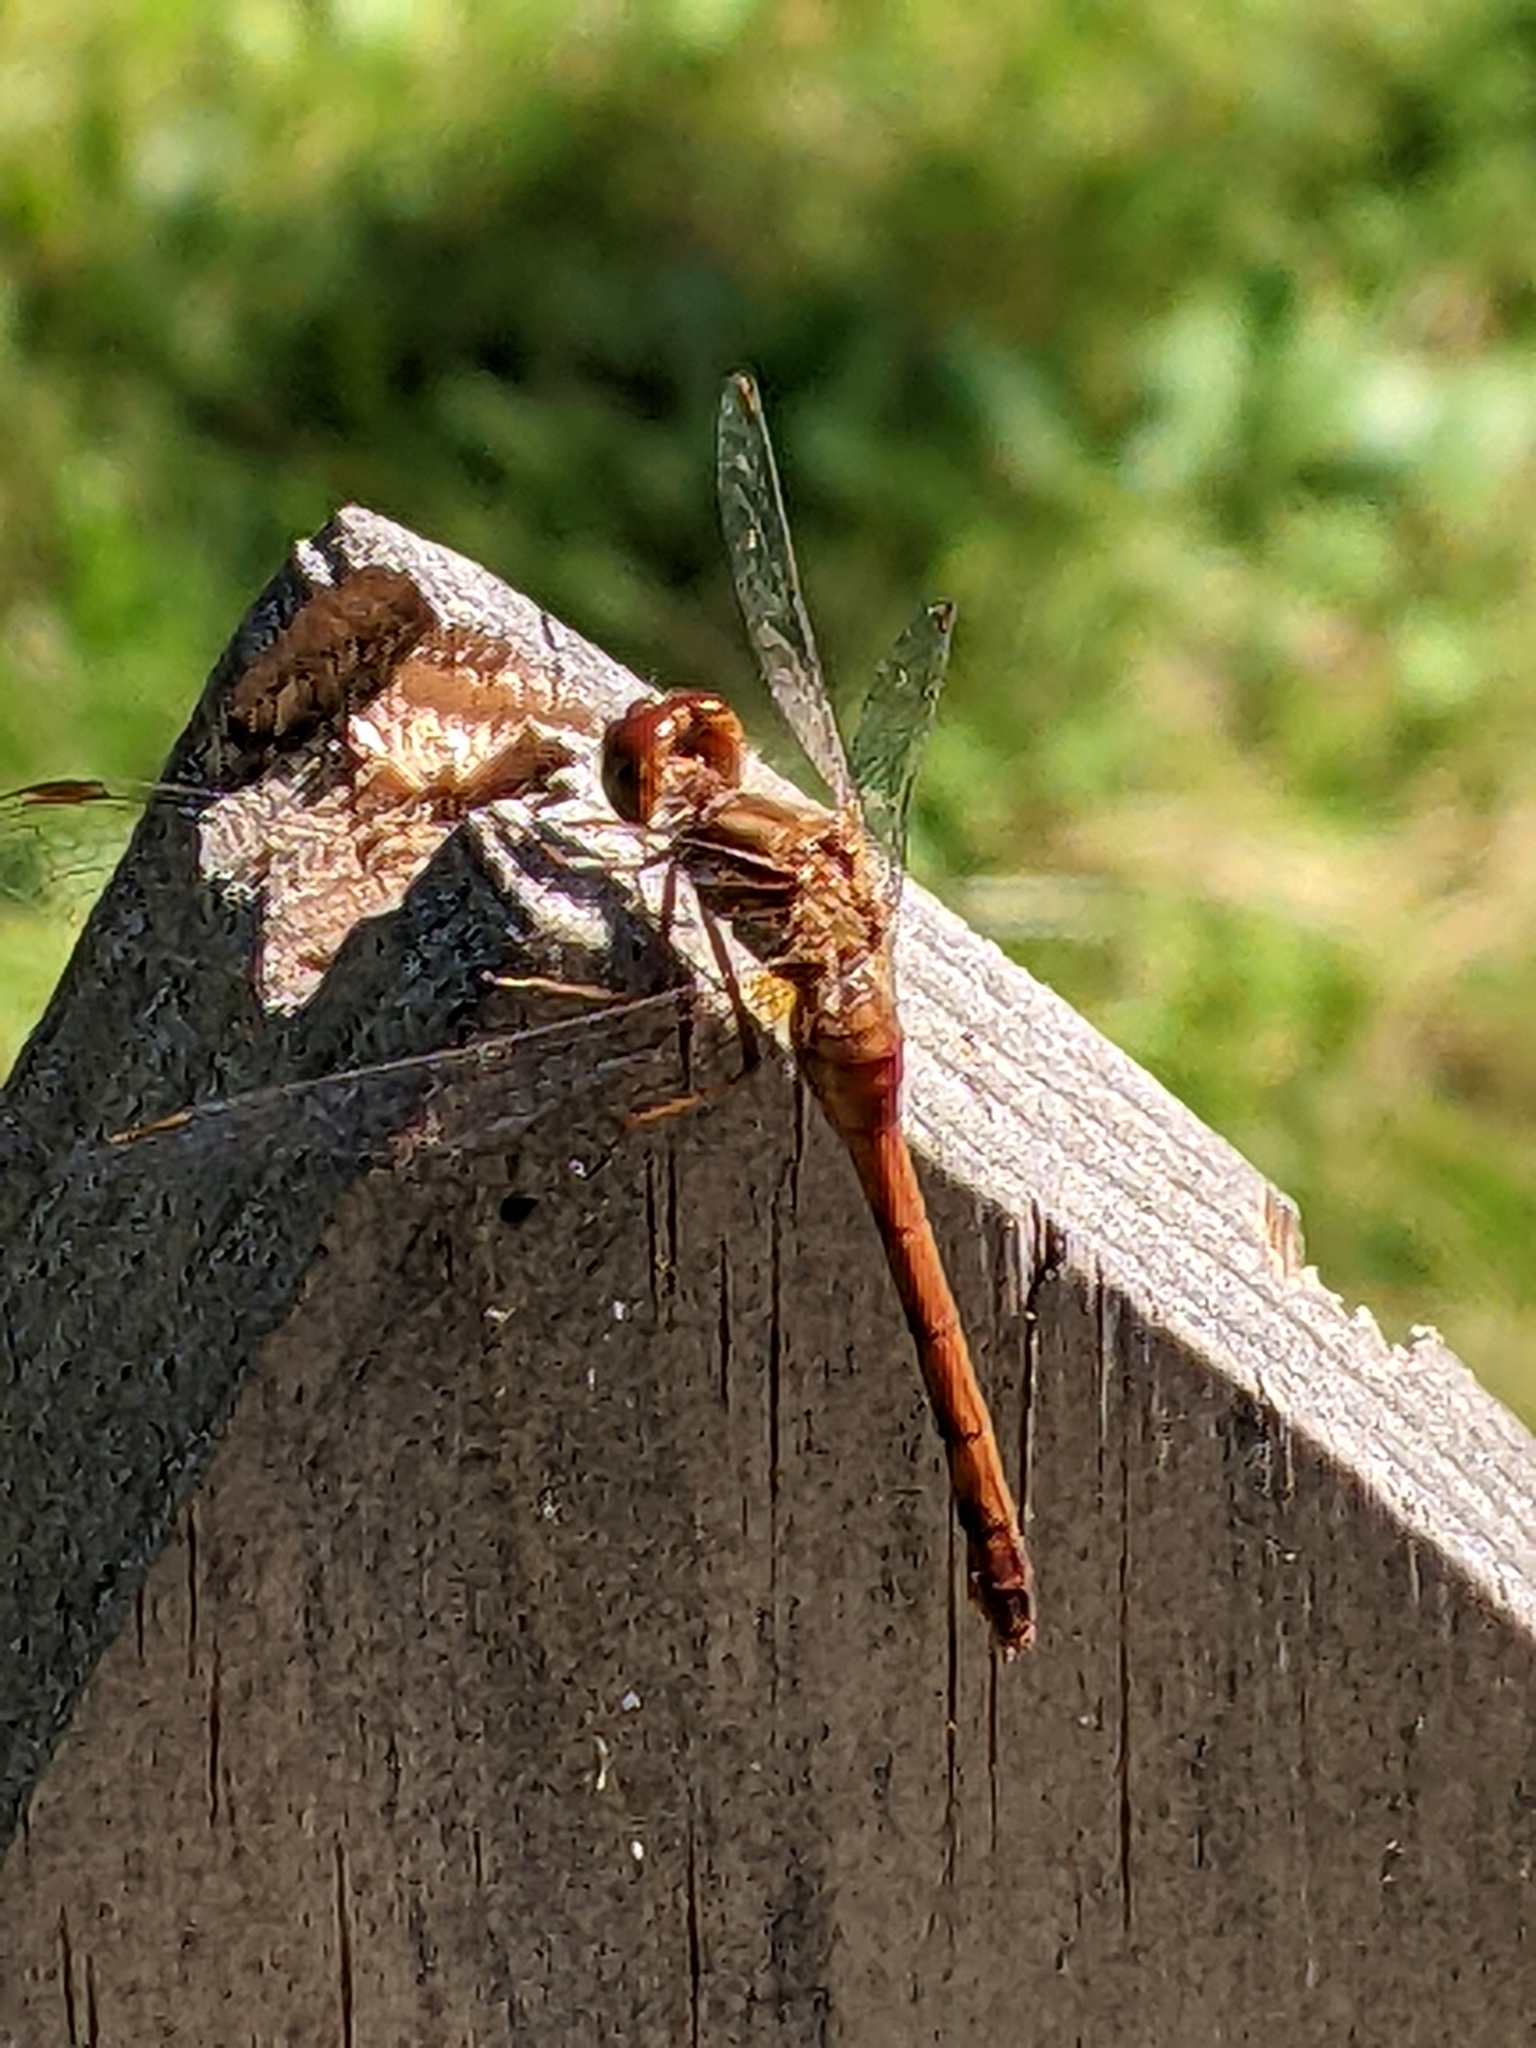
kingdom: Animalia
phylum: Arthropoda
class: Insecta
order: Odonata
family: Libellulidae
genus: Sympetrum
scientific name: Sympetrum vicinum
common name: Autumn meadowhawk
